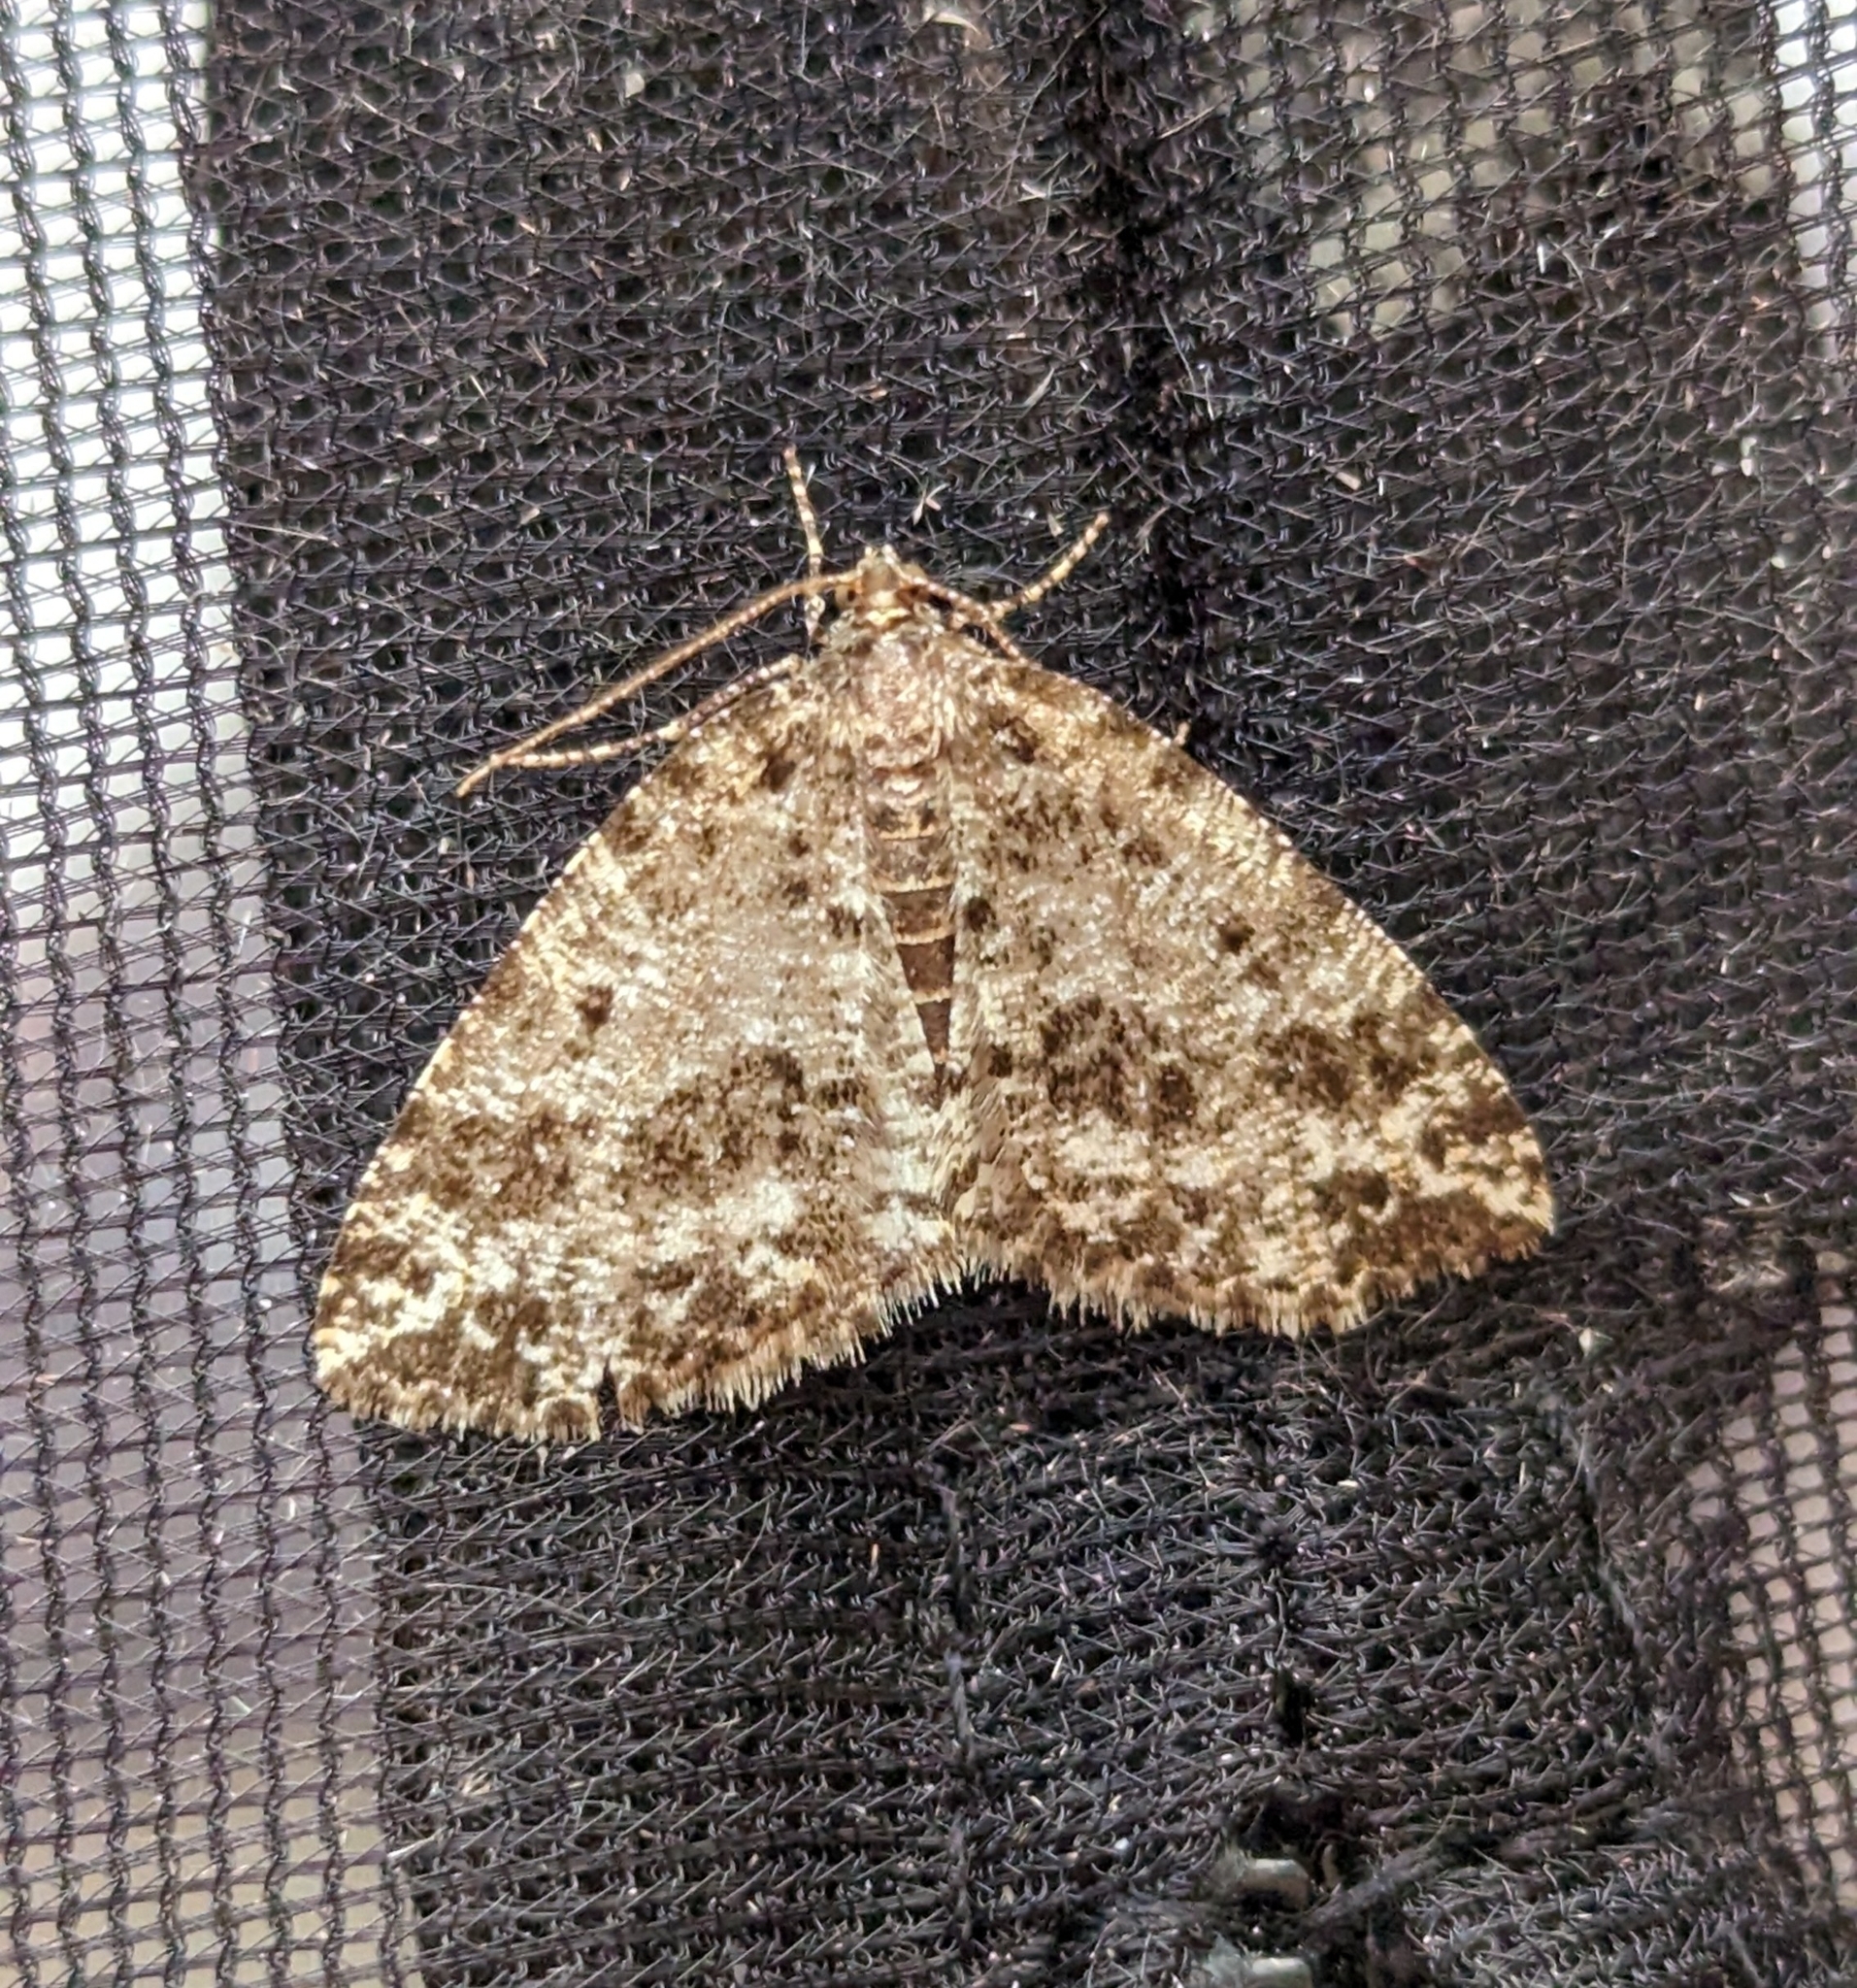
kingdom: Animalia
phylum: Arthropoda
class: Insecta
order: Lepidoptera
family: Geometridae
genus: Orthofidonia
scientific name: Orthofidonia tinctaria
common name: Marbled wave
